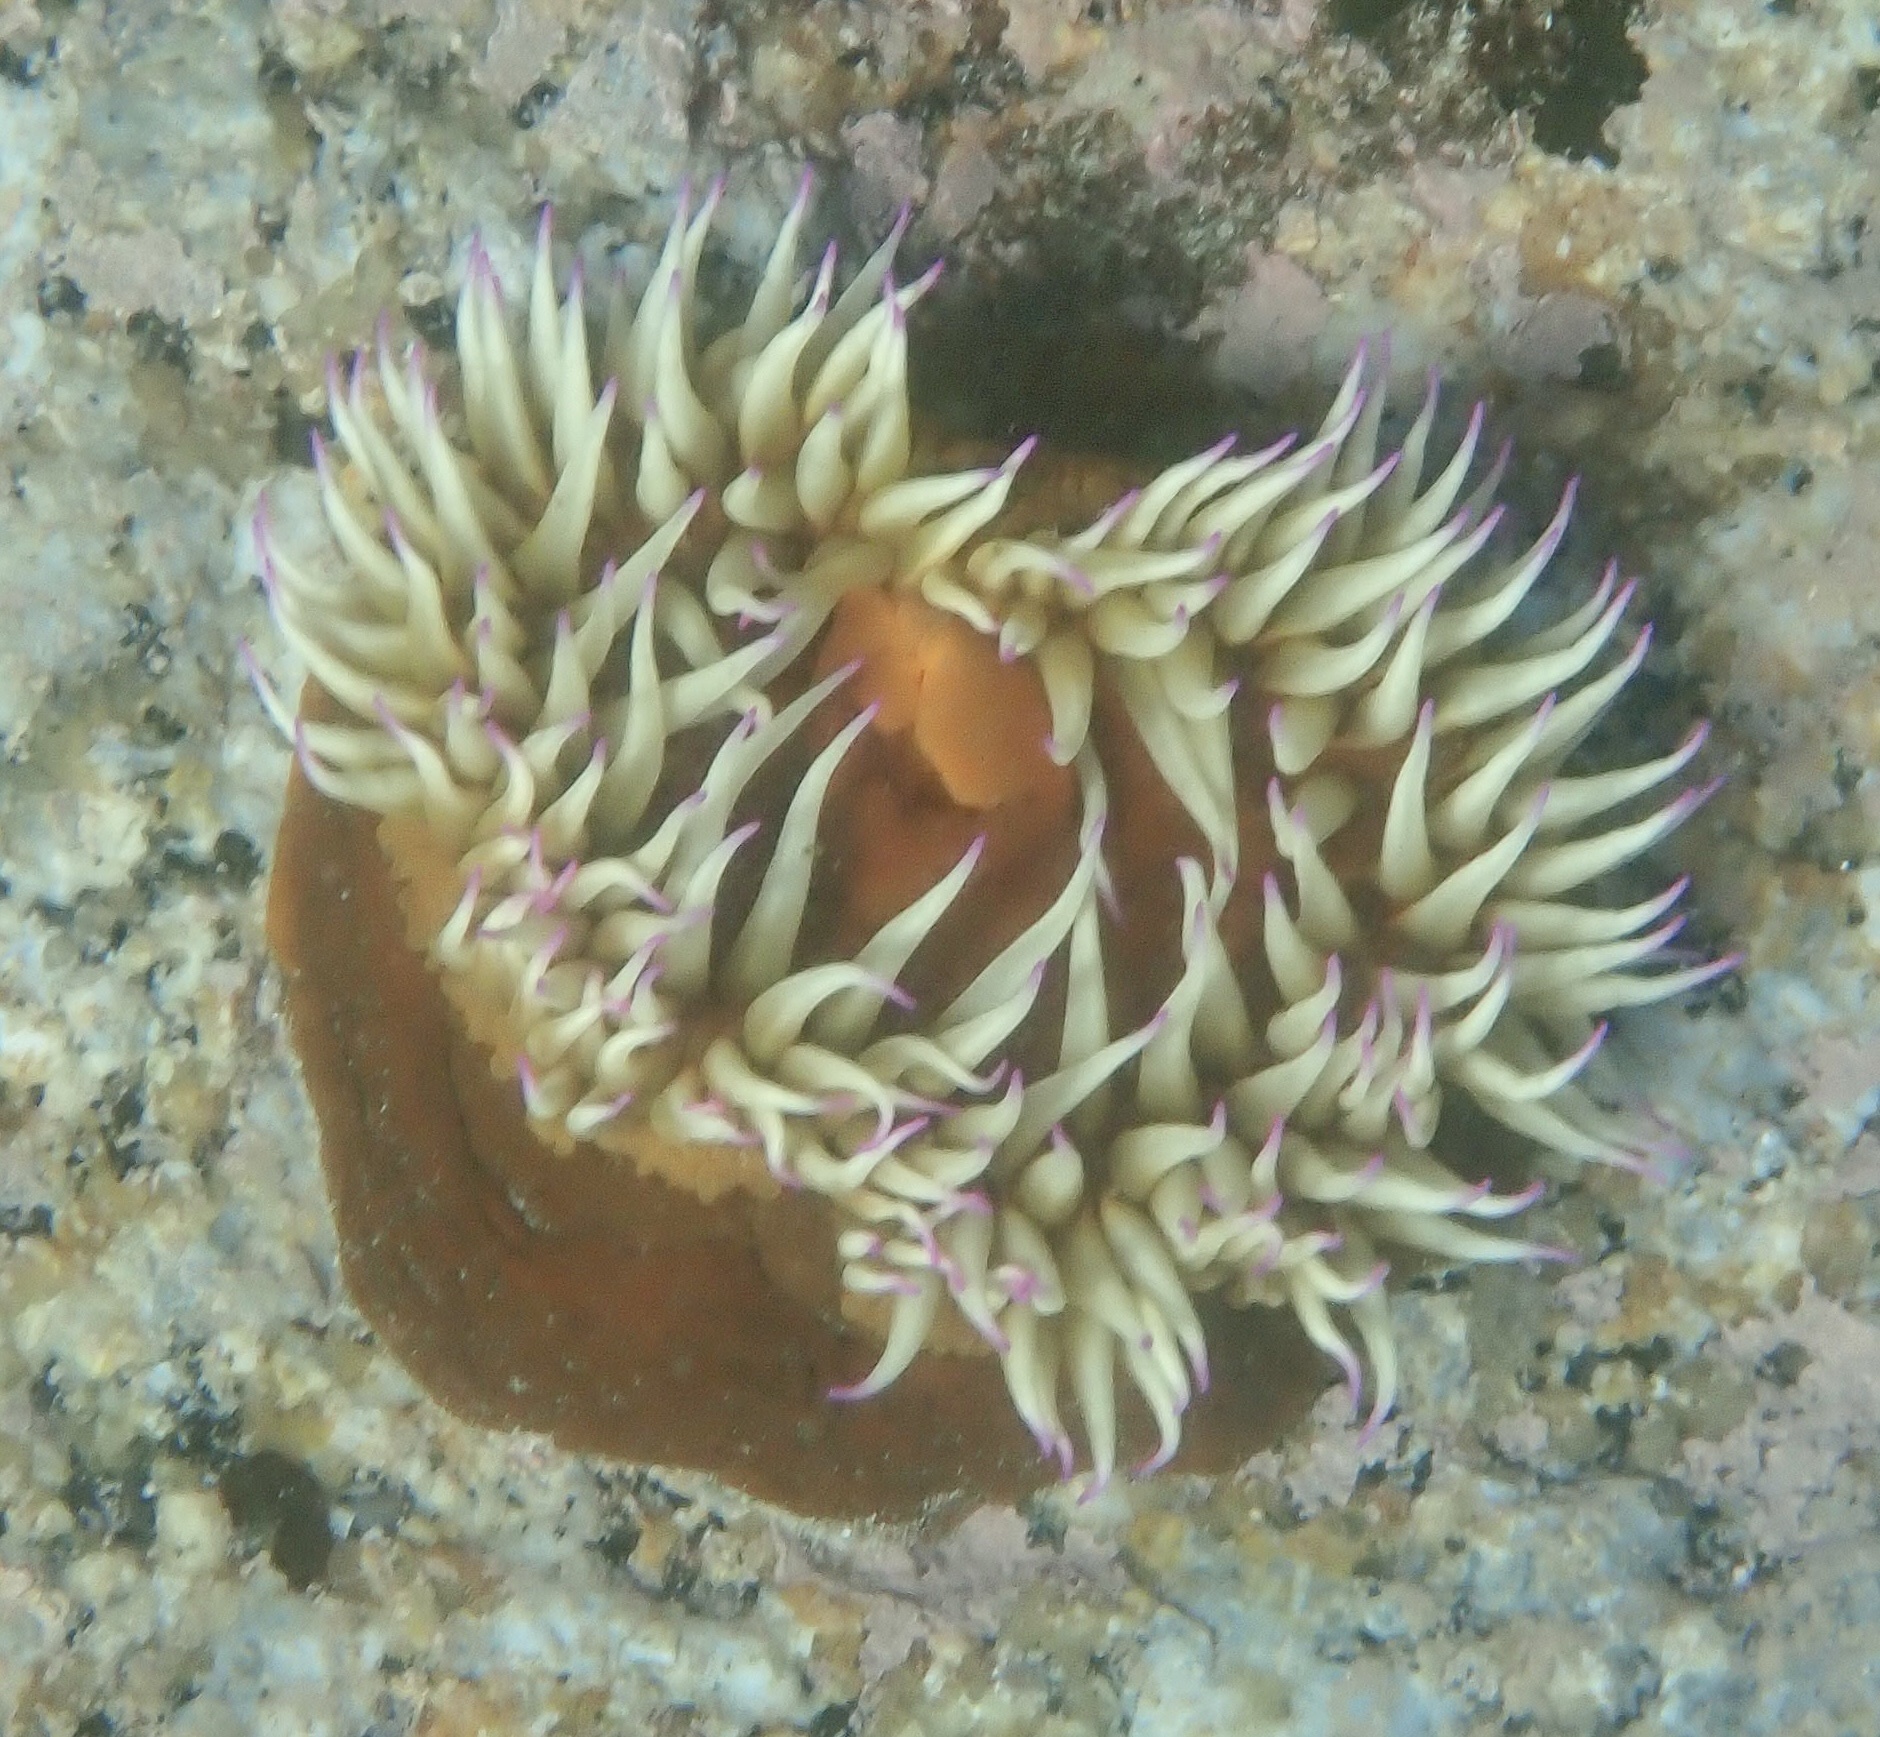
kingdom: Animalia
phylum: Cnidaria
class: Anthozoa
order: Actiniaria
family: Actiniidae
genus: Pseudactinia
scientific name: Pseudactinia flagellifera
